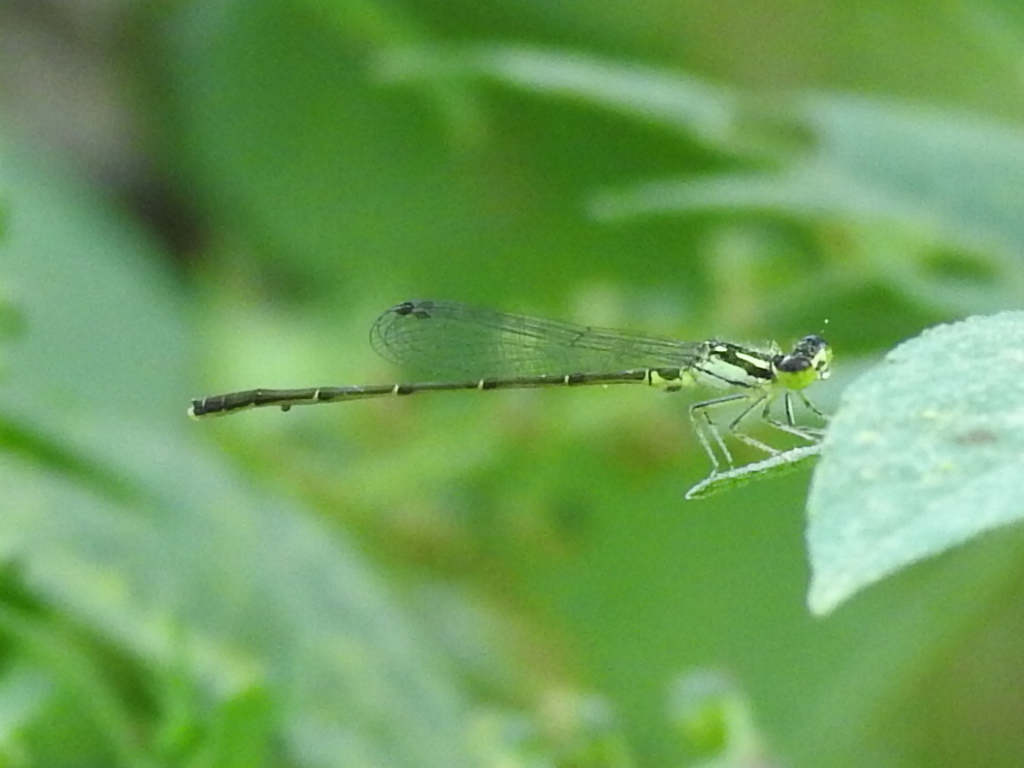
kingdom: Animalia
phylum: Arthropoda
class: Insecta
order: Odonata
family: Coenagrionidae
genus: Ischnura
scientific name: Ischnura posita
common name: Fragile forktail
